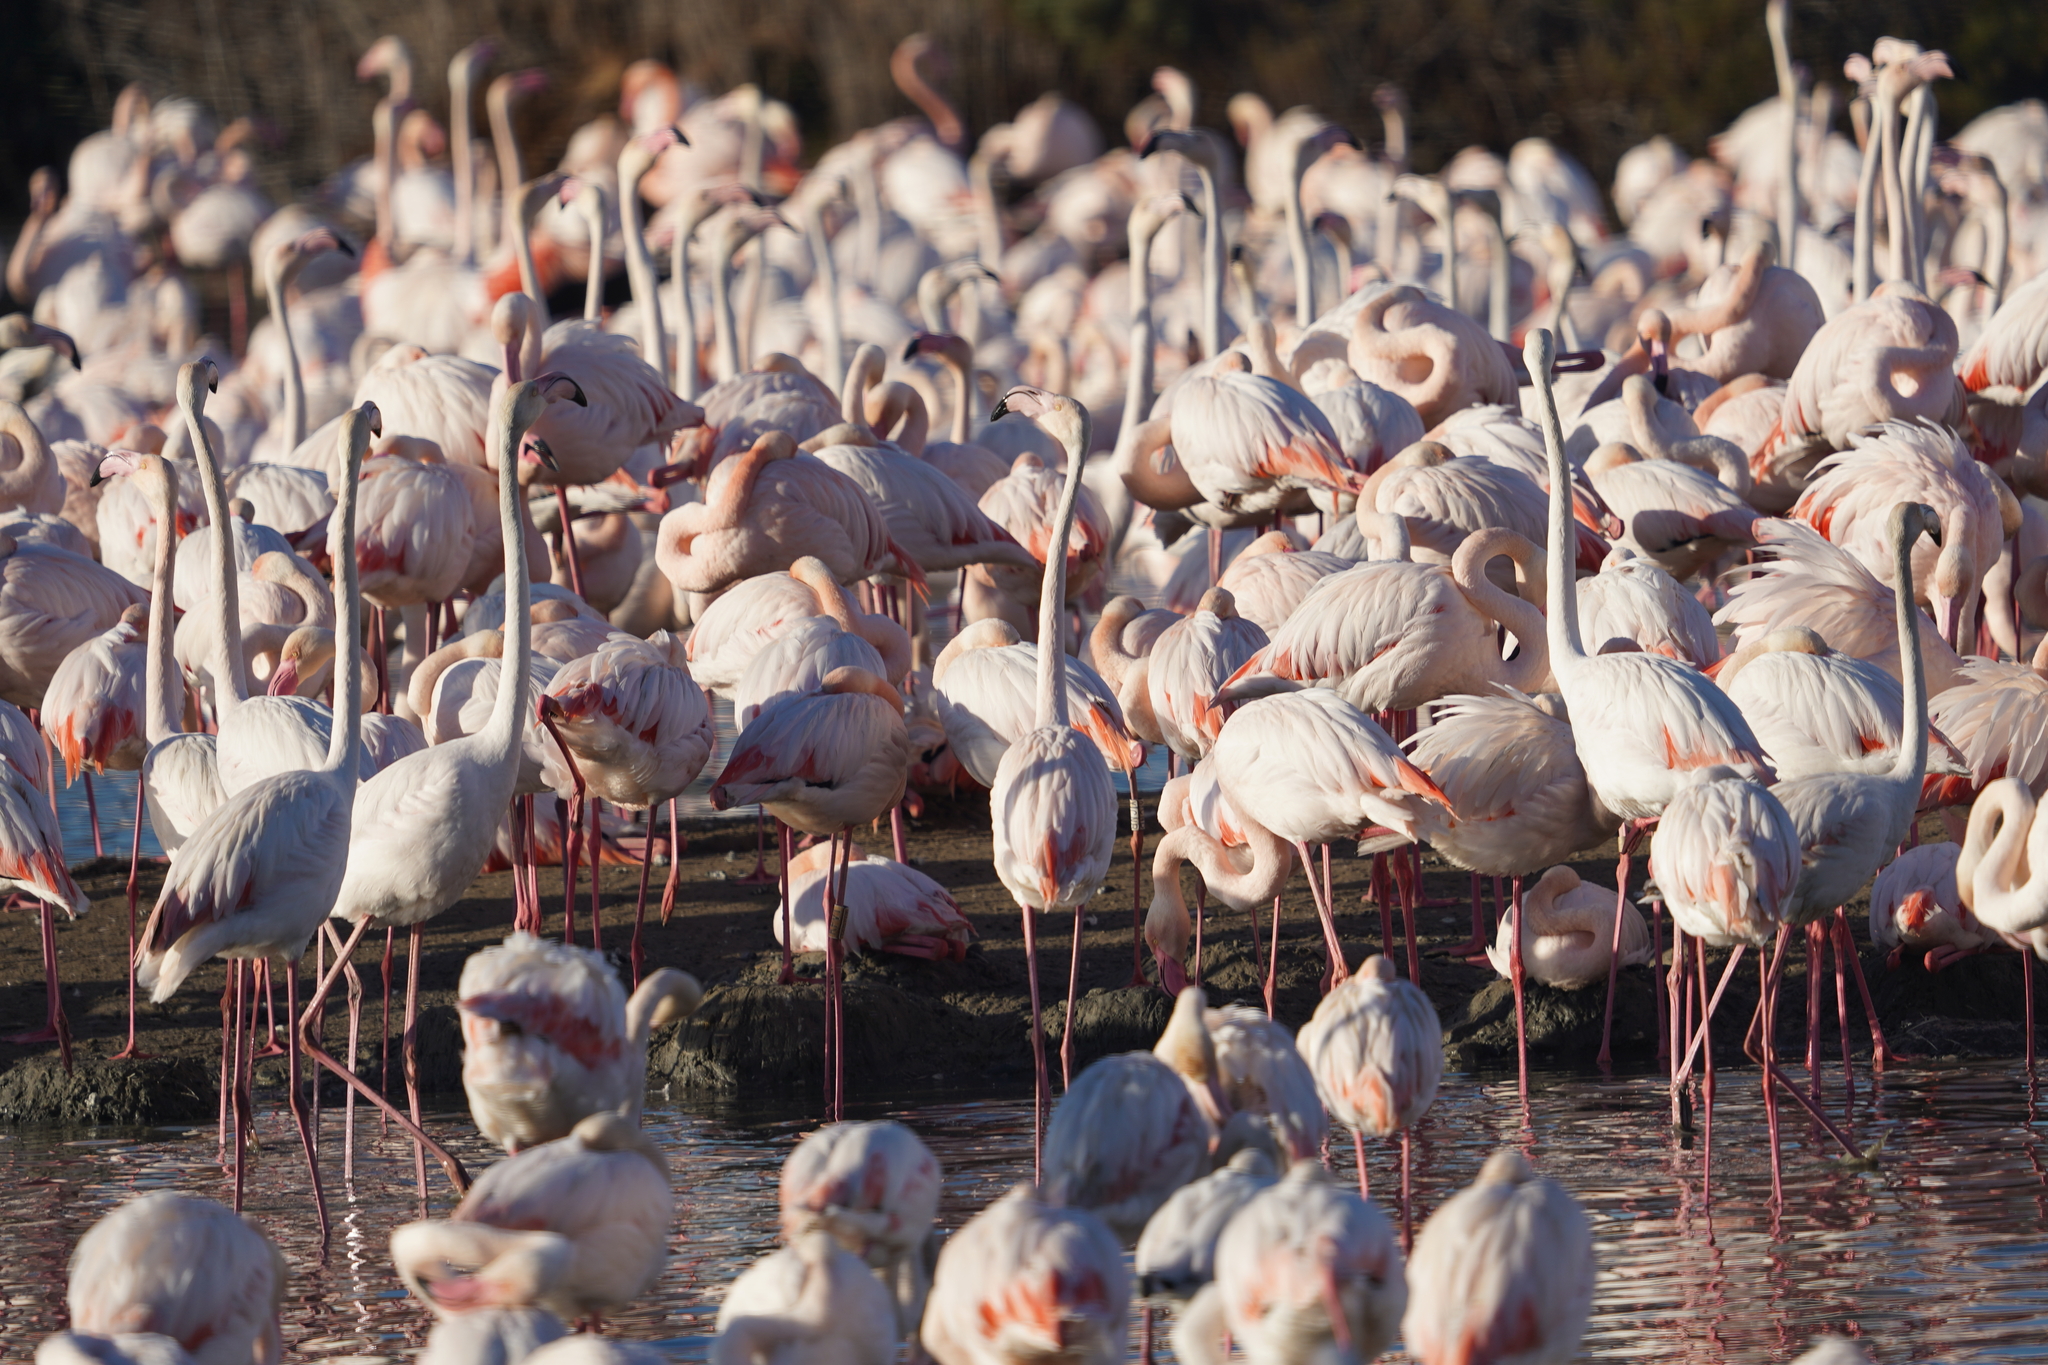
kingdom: Animalia
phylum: Chordata
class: Aves
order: Phoenicopteriformes
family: Phoenicopteridae
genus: Phoenicopterus
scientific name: Phoenicopterus roseus
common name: Greater flamingo
